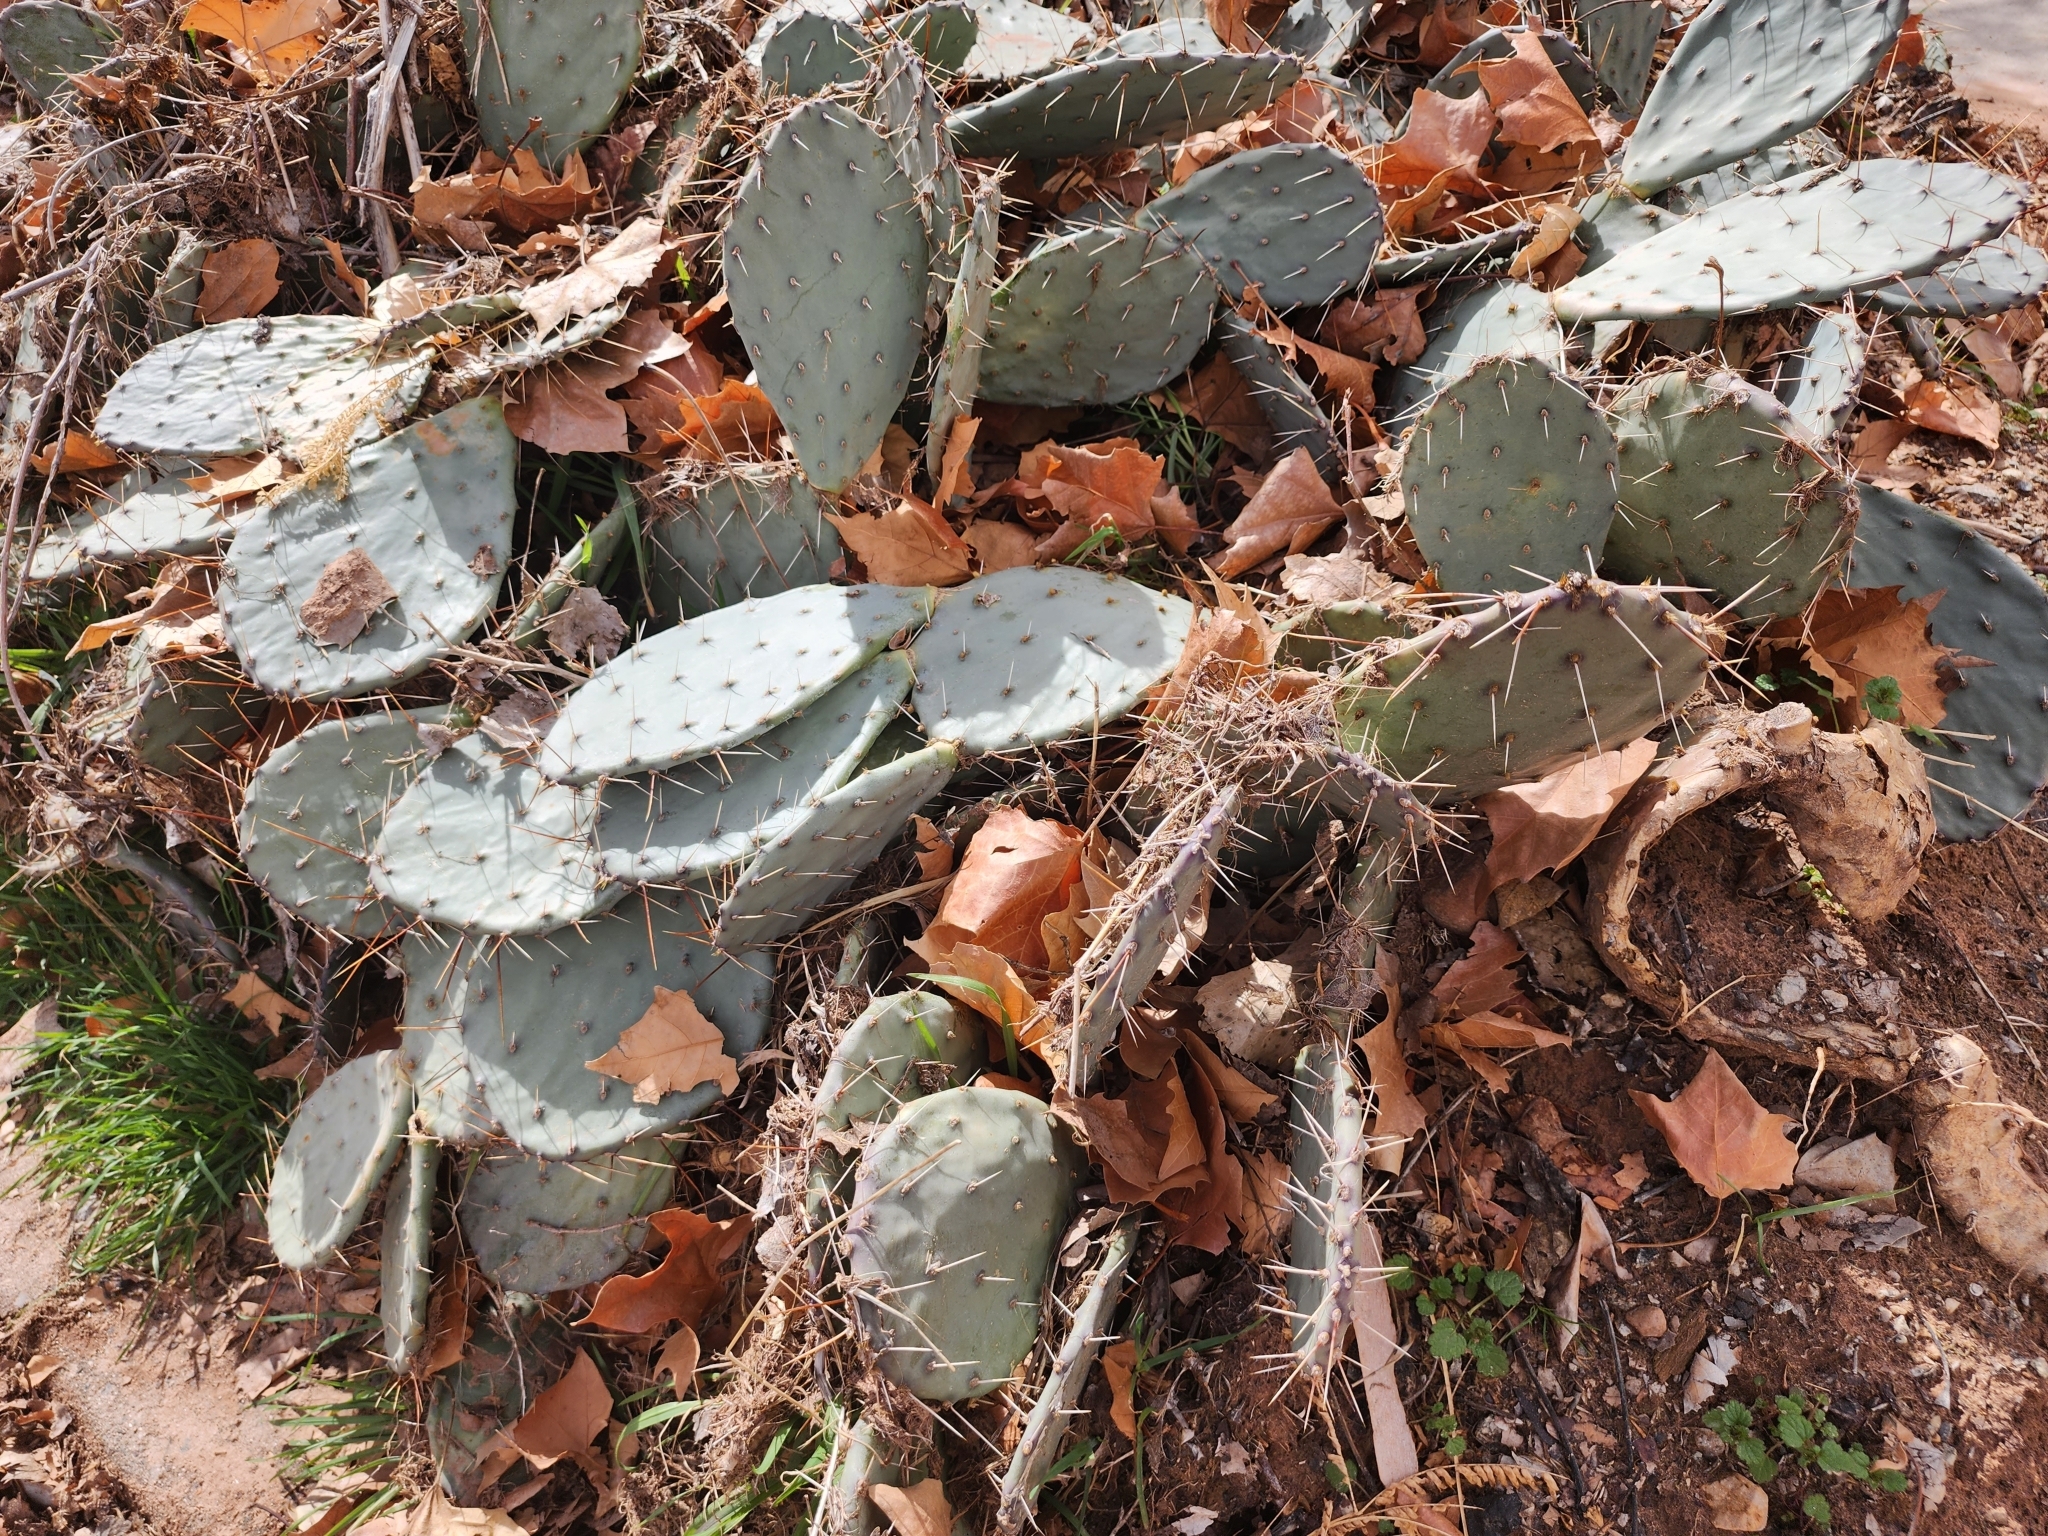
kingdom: Plantae
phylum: Tracheophyta
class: Magnoliopsida
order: Caryophyllales
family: Cactaceae
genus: Opuntia
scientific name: Opuntia phaeacantha
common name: New mexico prickly-pear
